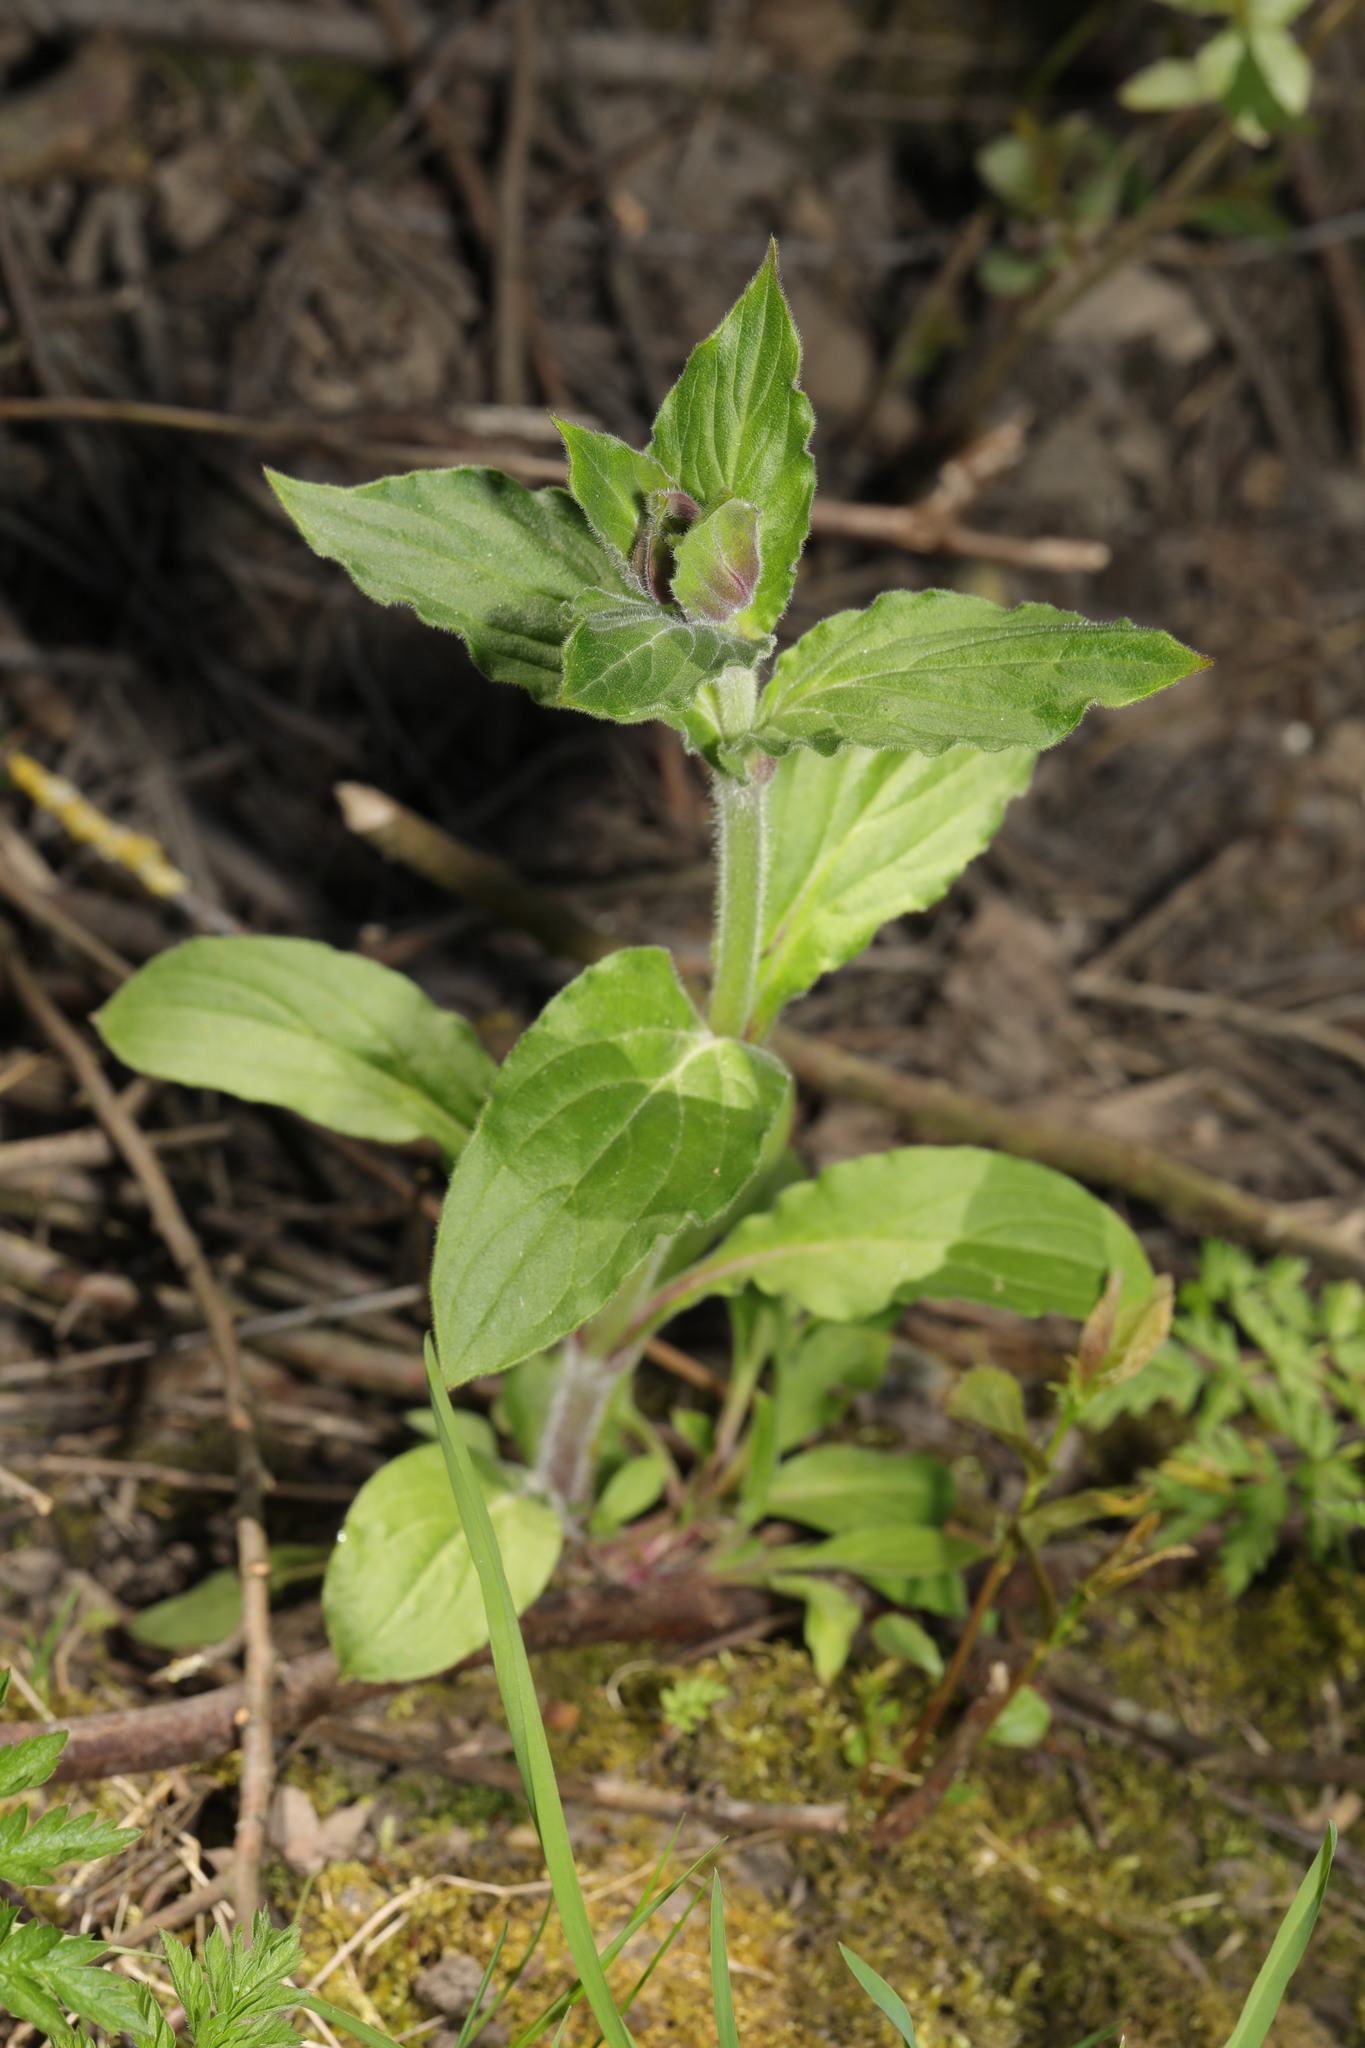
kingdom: Plantae
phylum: Tracheophyta
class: Magnoliopsida
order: Caryophyllales
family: Caryophyllaceae
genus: Silene
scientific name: Silene dioica
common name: Red campion
